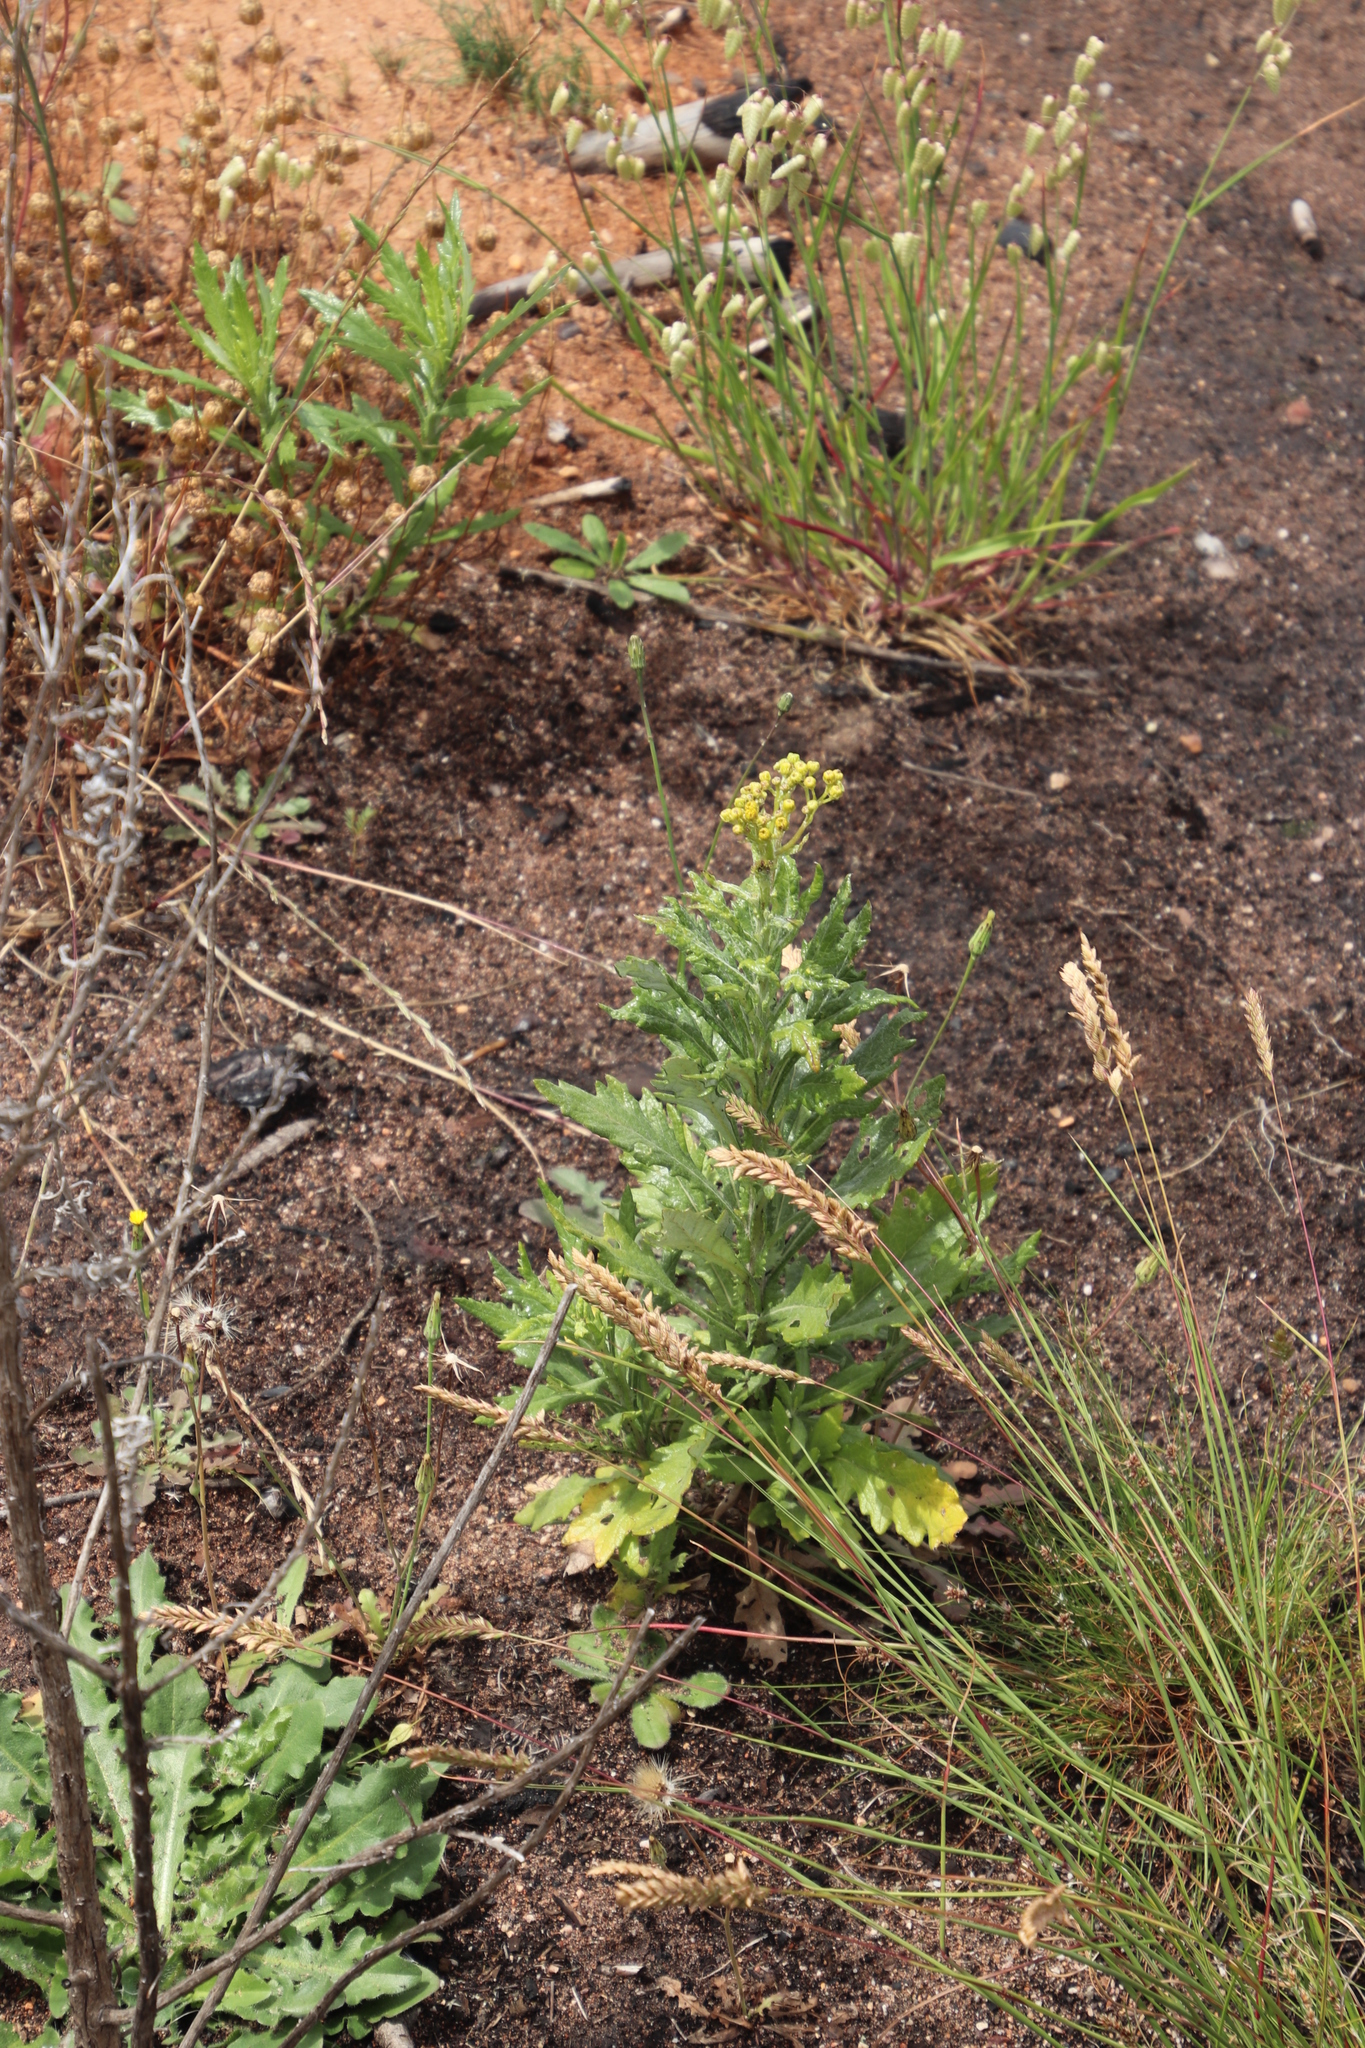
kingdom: Plantae
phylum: Tracheophyta
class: Magnoliopsida
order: Asterales
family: Asteraceae
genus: Senecio
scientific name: Senecio pterophorus
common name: Shoddy ragwort
